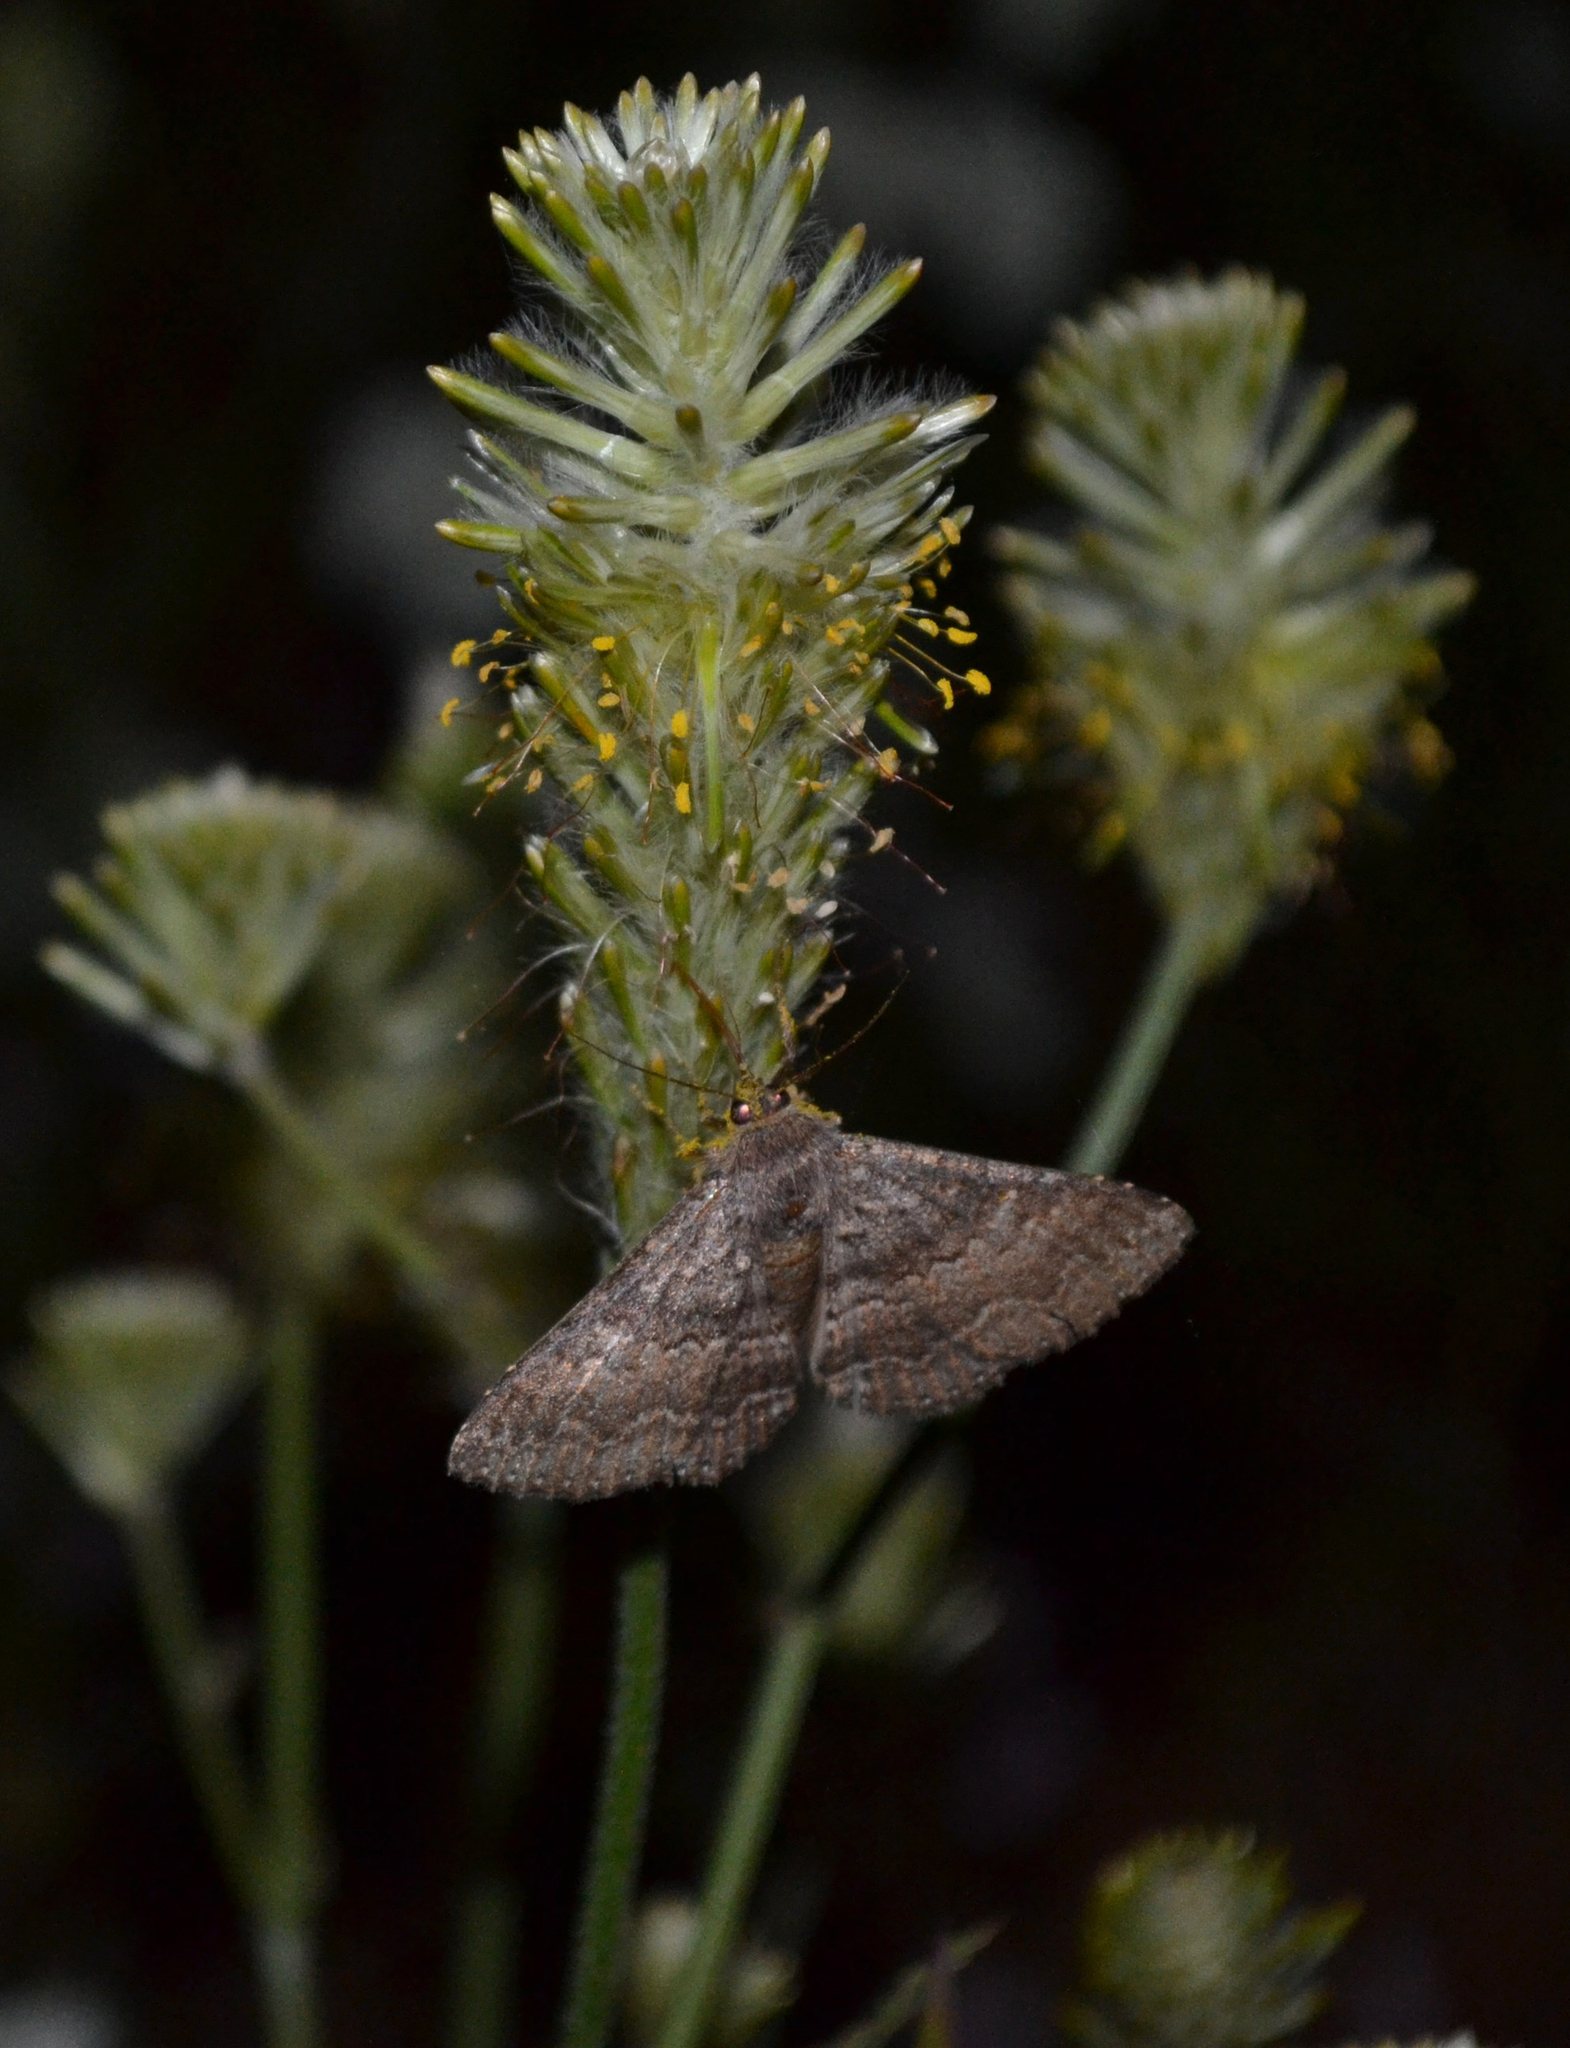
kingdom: Plantae
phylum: Tracheophyta
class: Magnoliopsida
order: Caryophyllales
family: Amaranthaceae
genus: Ptilotus
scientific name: Ptilotus polystachyus
